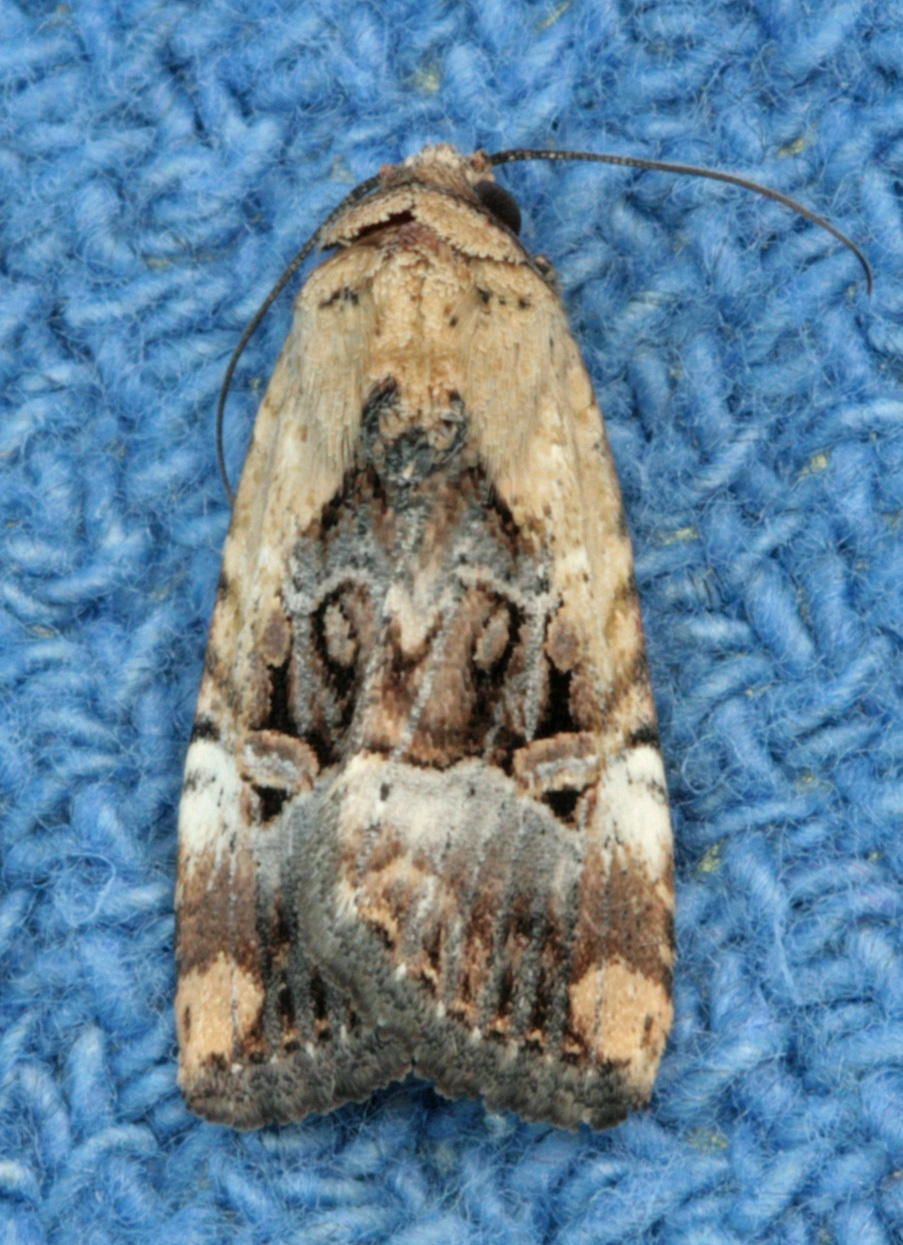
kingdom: Animalia
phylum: Arthropoda
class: Insecta
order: Lepidoptera
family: Noctuidae
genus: Elaphria
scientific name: Elaphria chalcedonia
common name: Chalcedony midget
